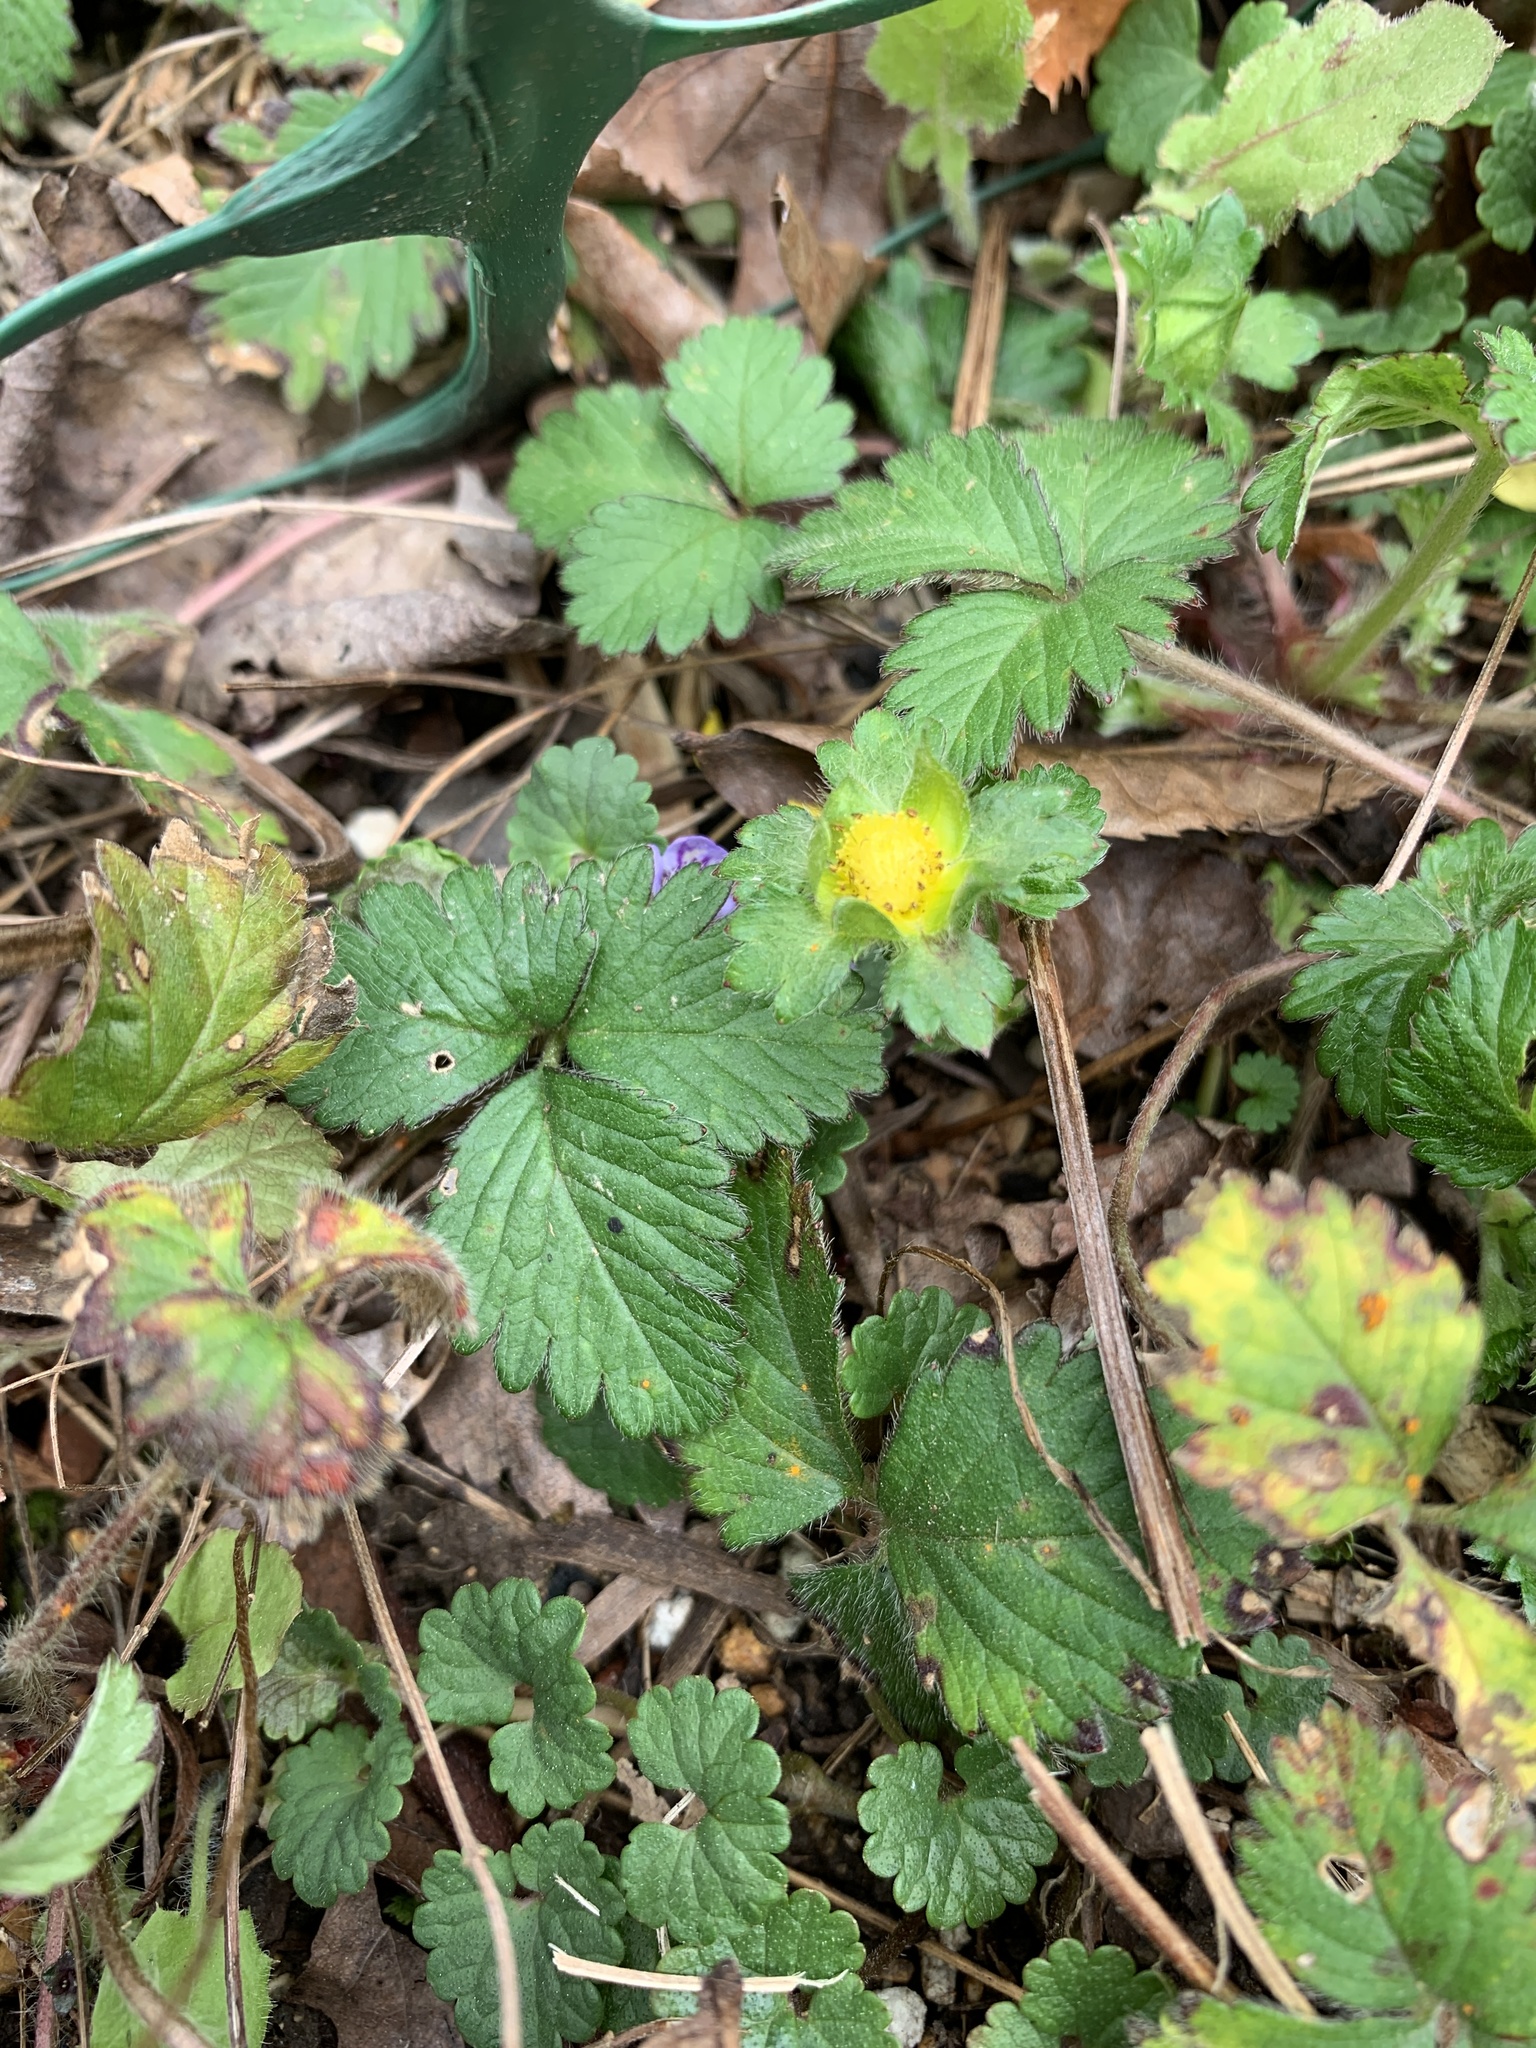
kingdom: Plantae
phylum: Tracheophyta
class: Magnoliopsida
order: Rosales
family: Rosaceae
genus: Potentilla
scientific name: Potentilla indica
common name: Yellow-flowered strawberry
